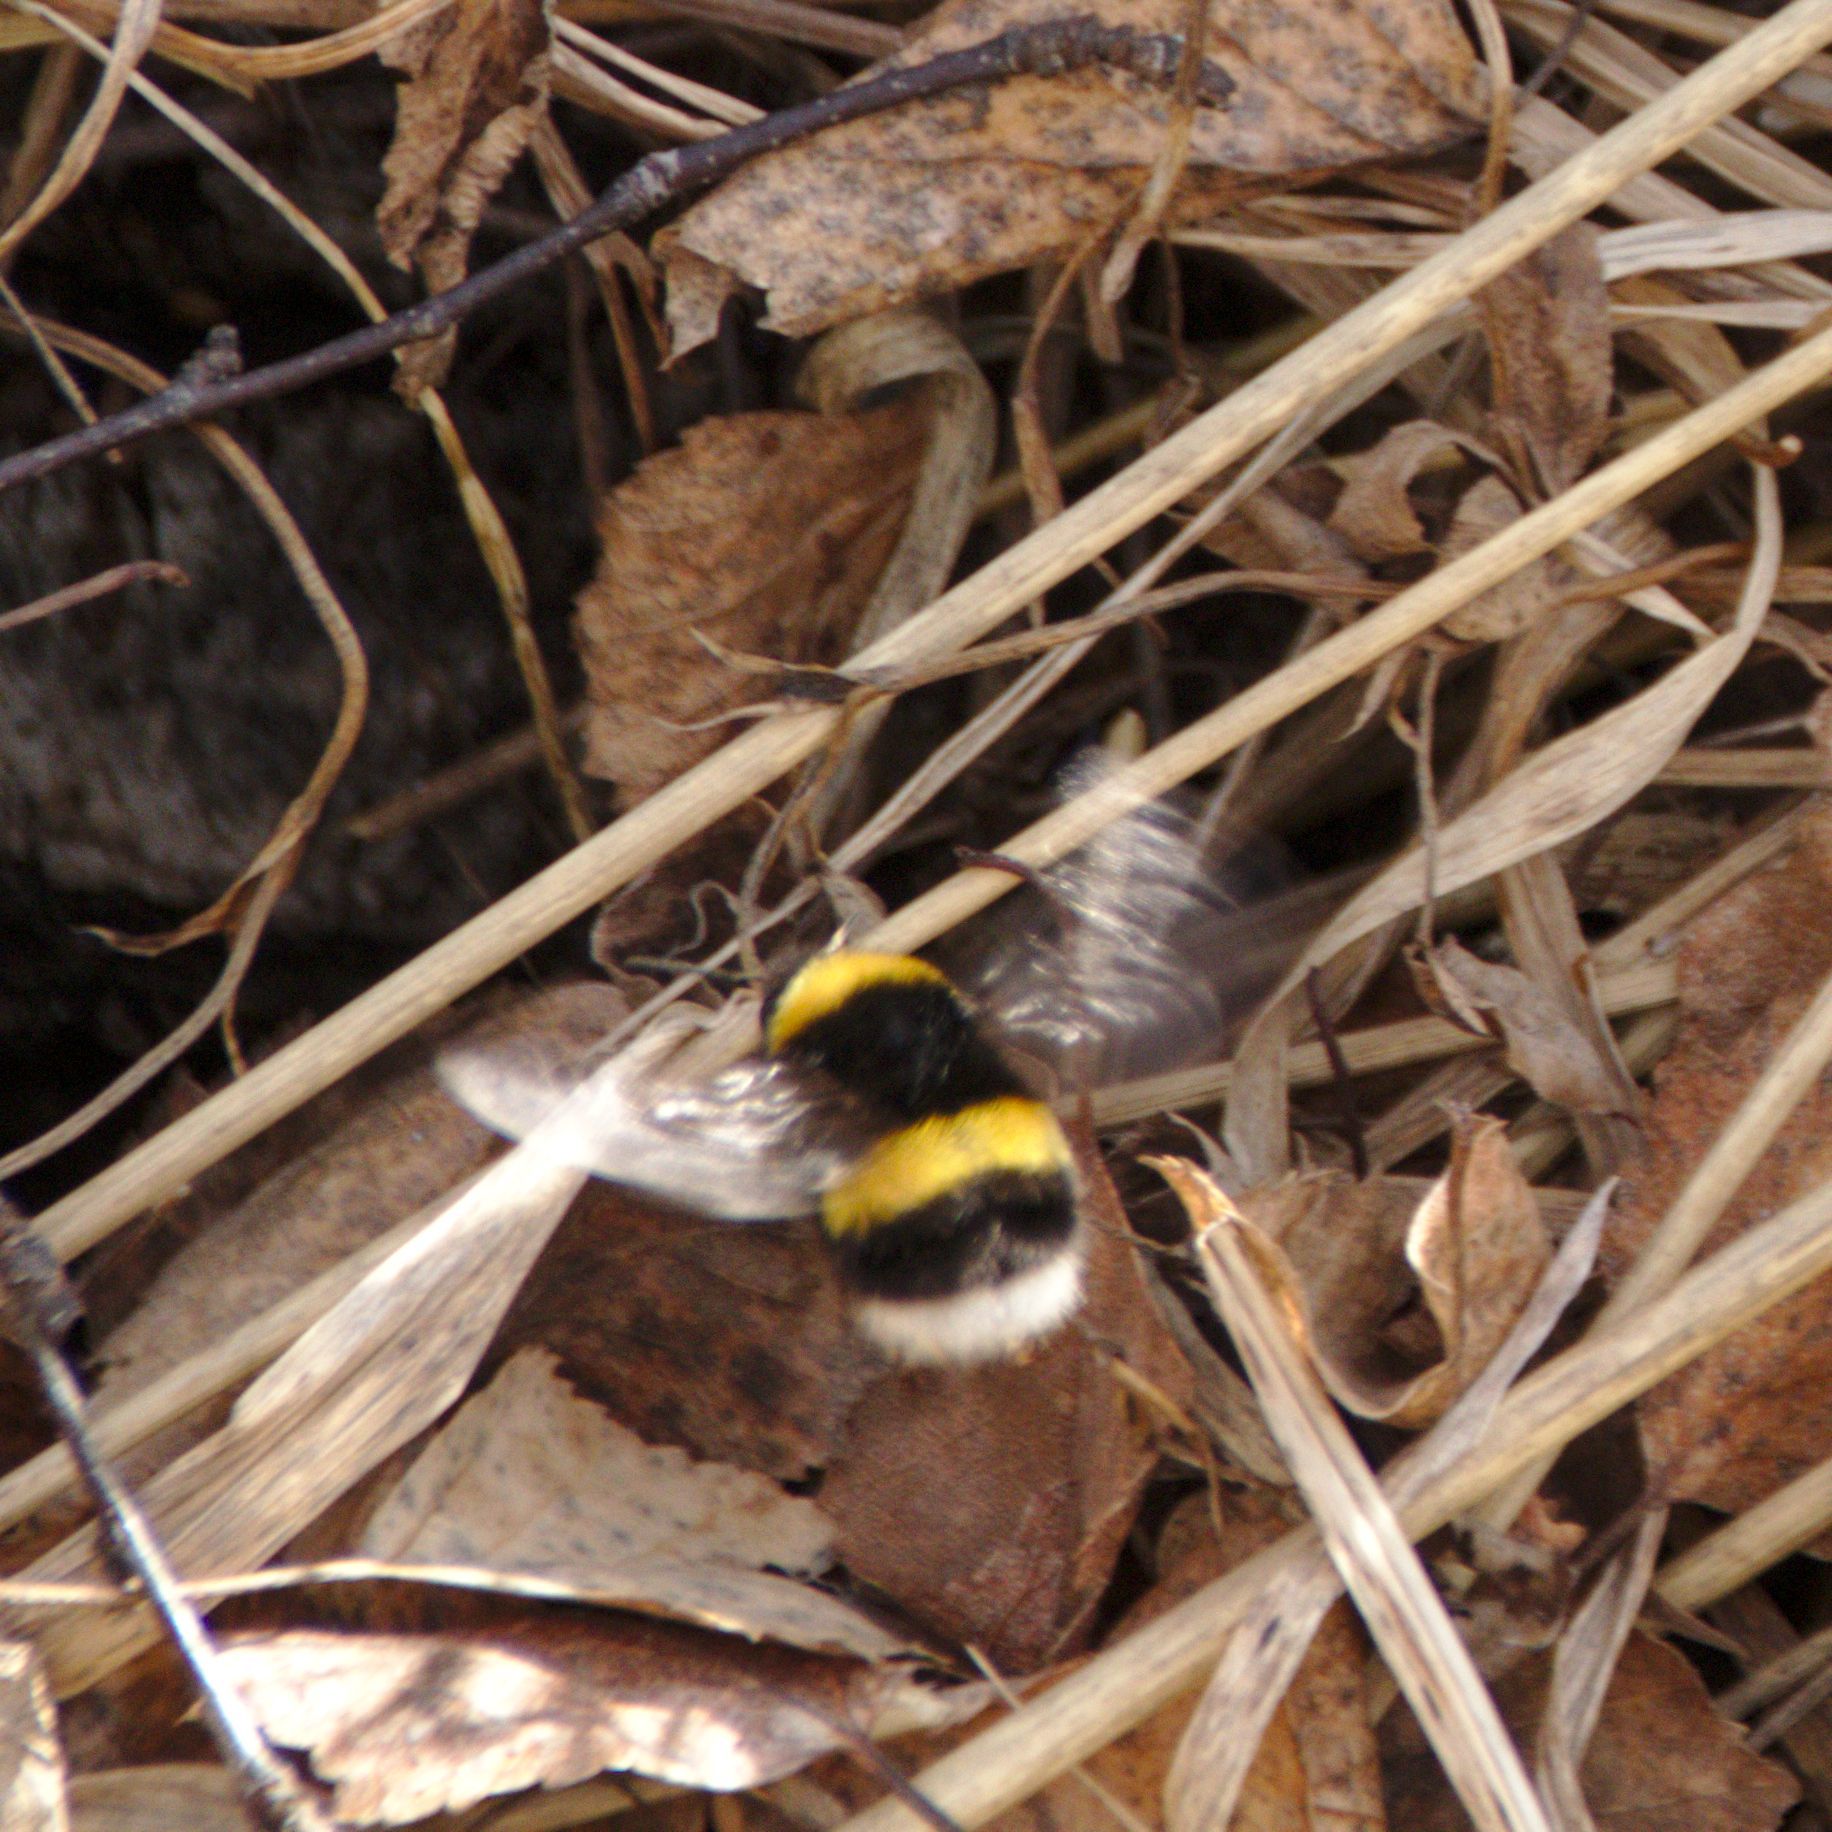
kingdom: Animalia
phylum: Arthropoda
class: Insecta
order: Hymenoptera
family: Apidae
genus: Bombus
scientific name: Bombus
